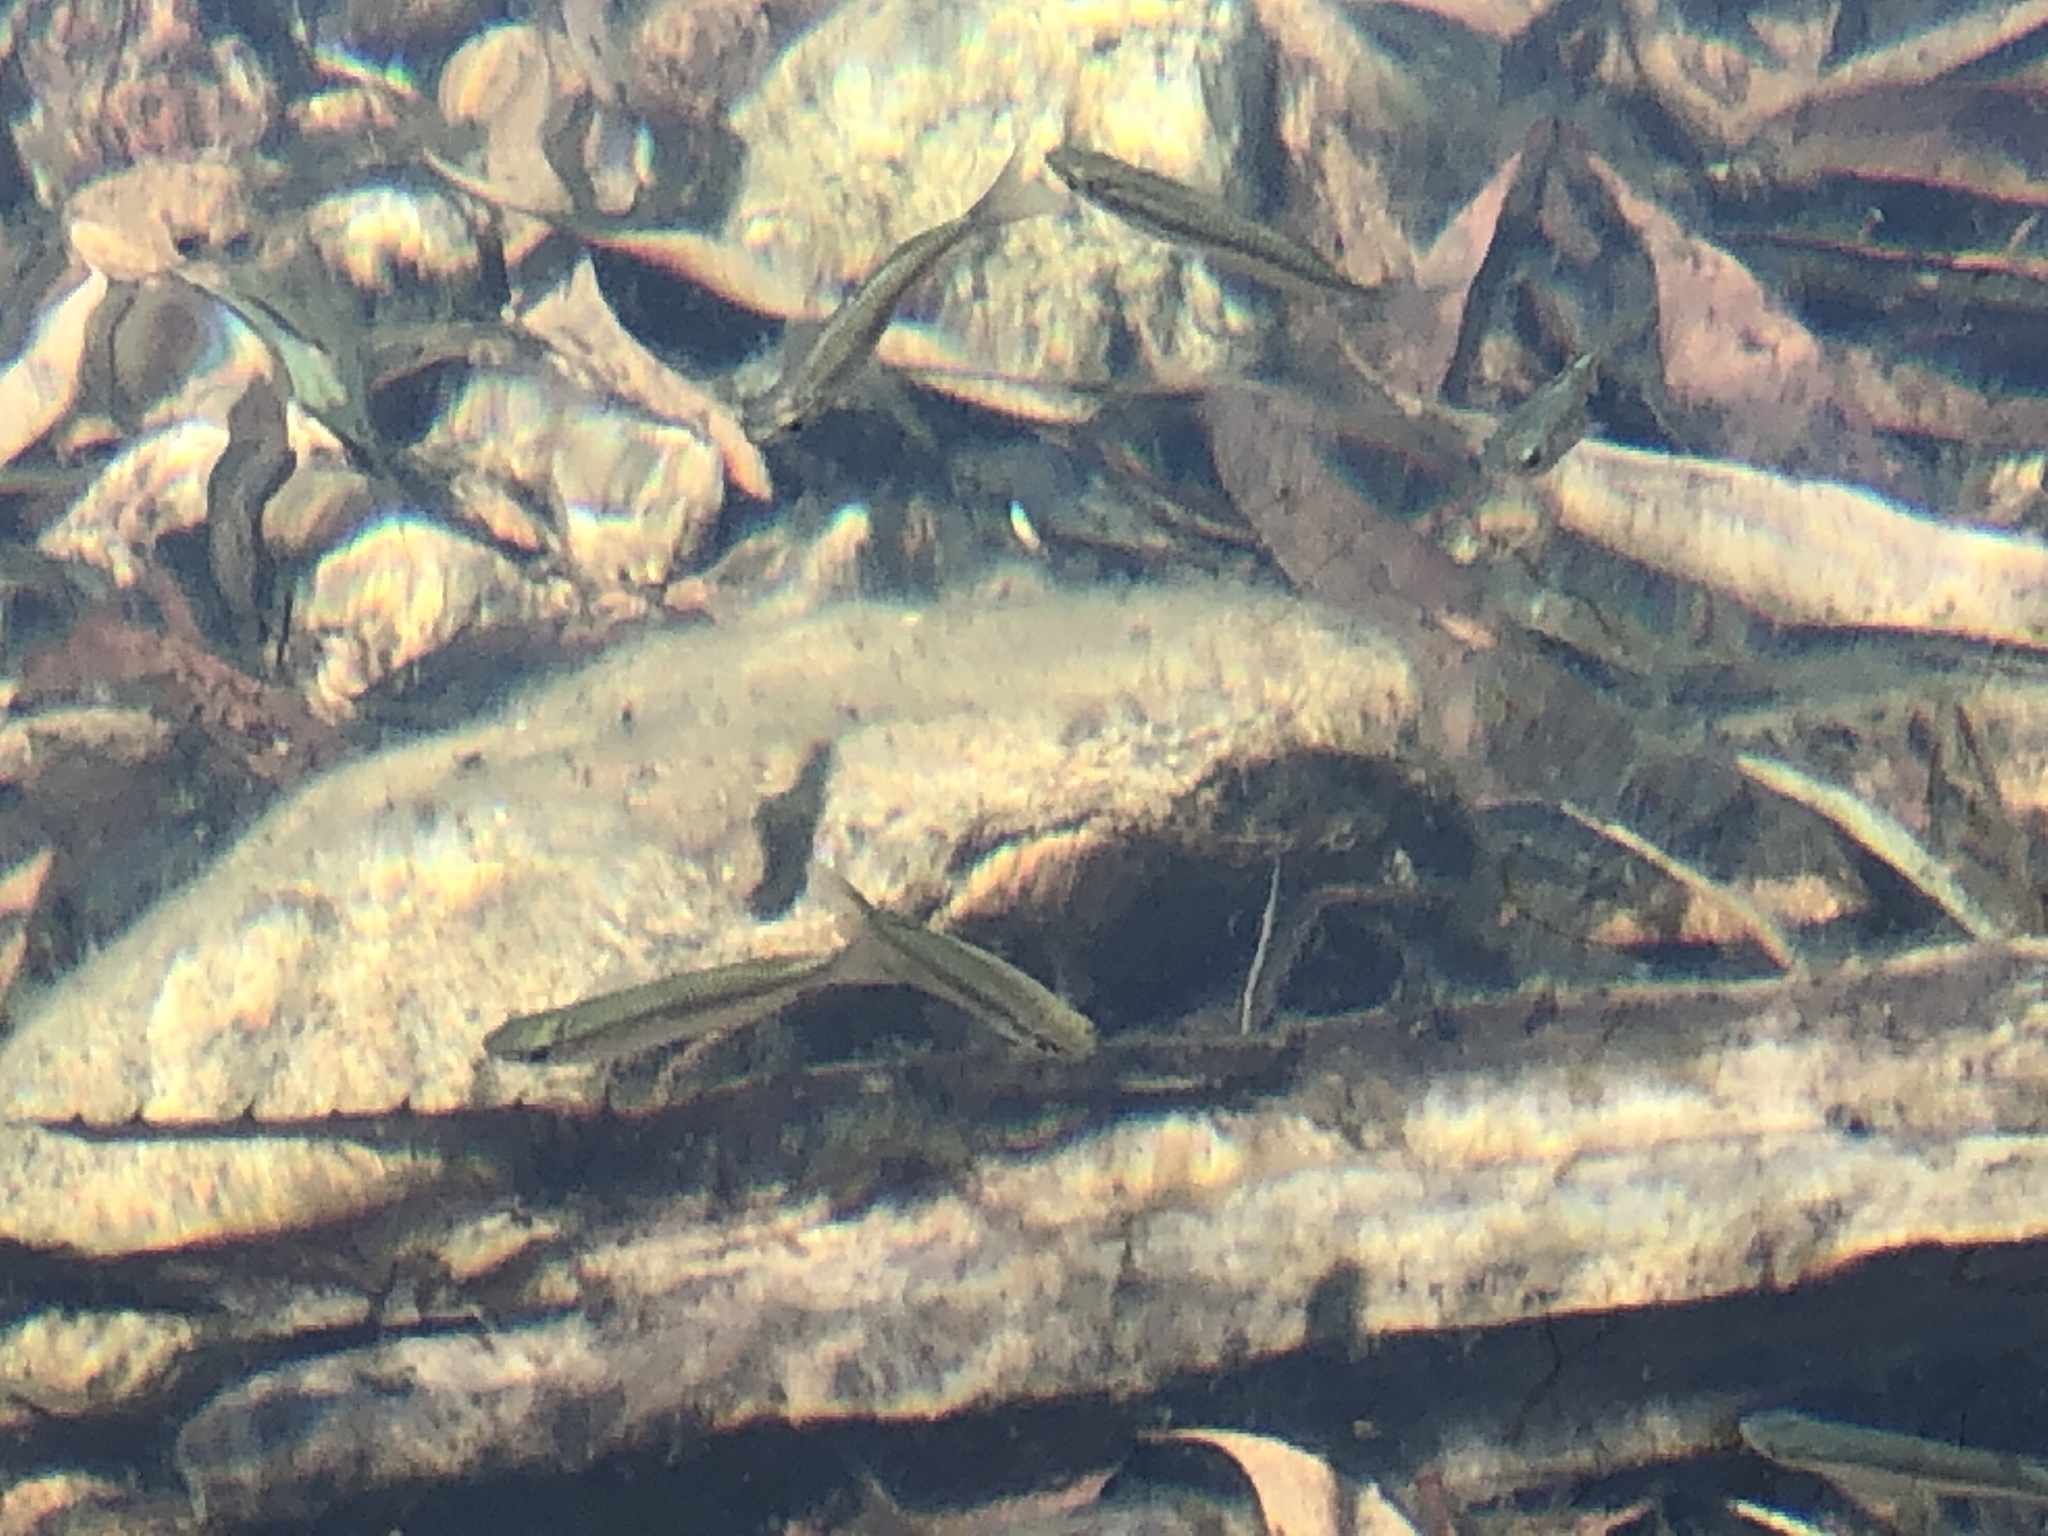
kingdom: Animalia
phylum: Chordata
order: Atheriniformes
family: Melanotaeniidae
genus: Melanotaenia
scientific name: Melanotaenia splendida
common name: Checkered rainbowfish
